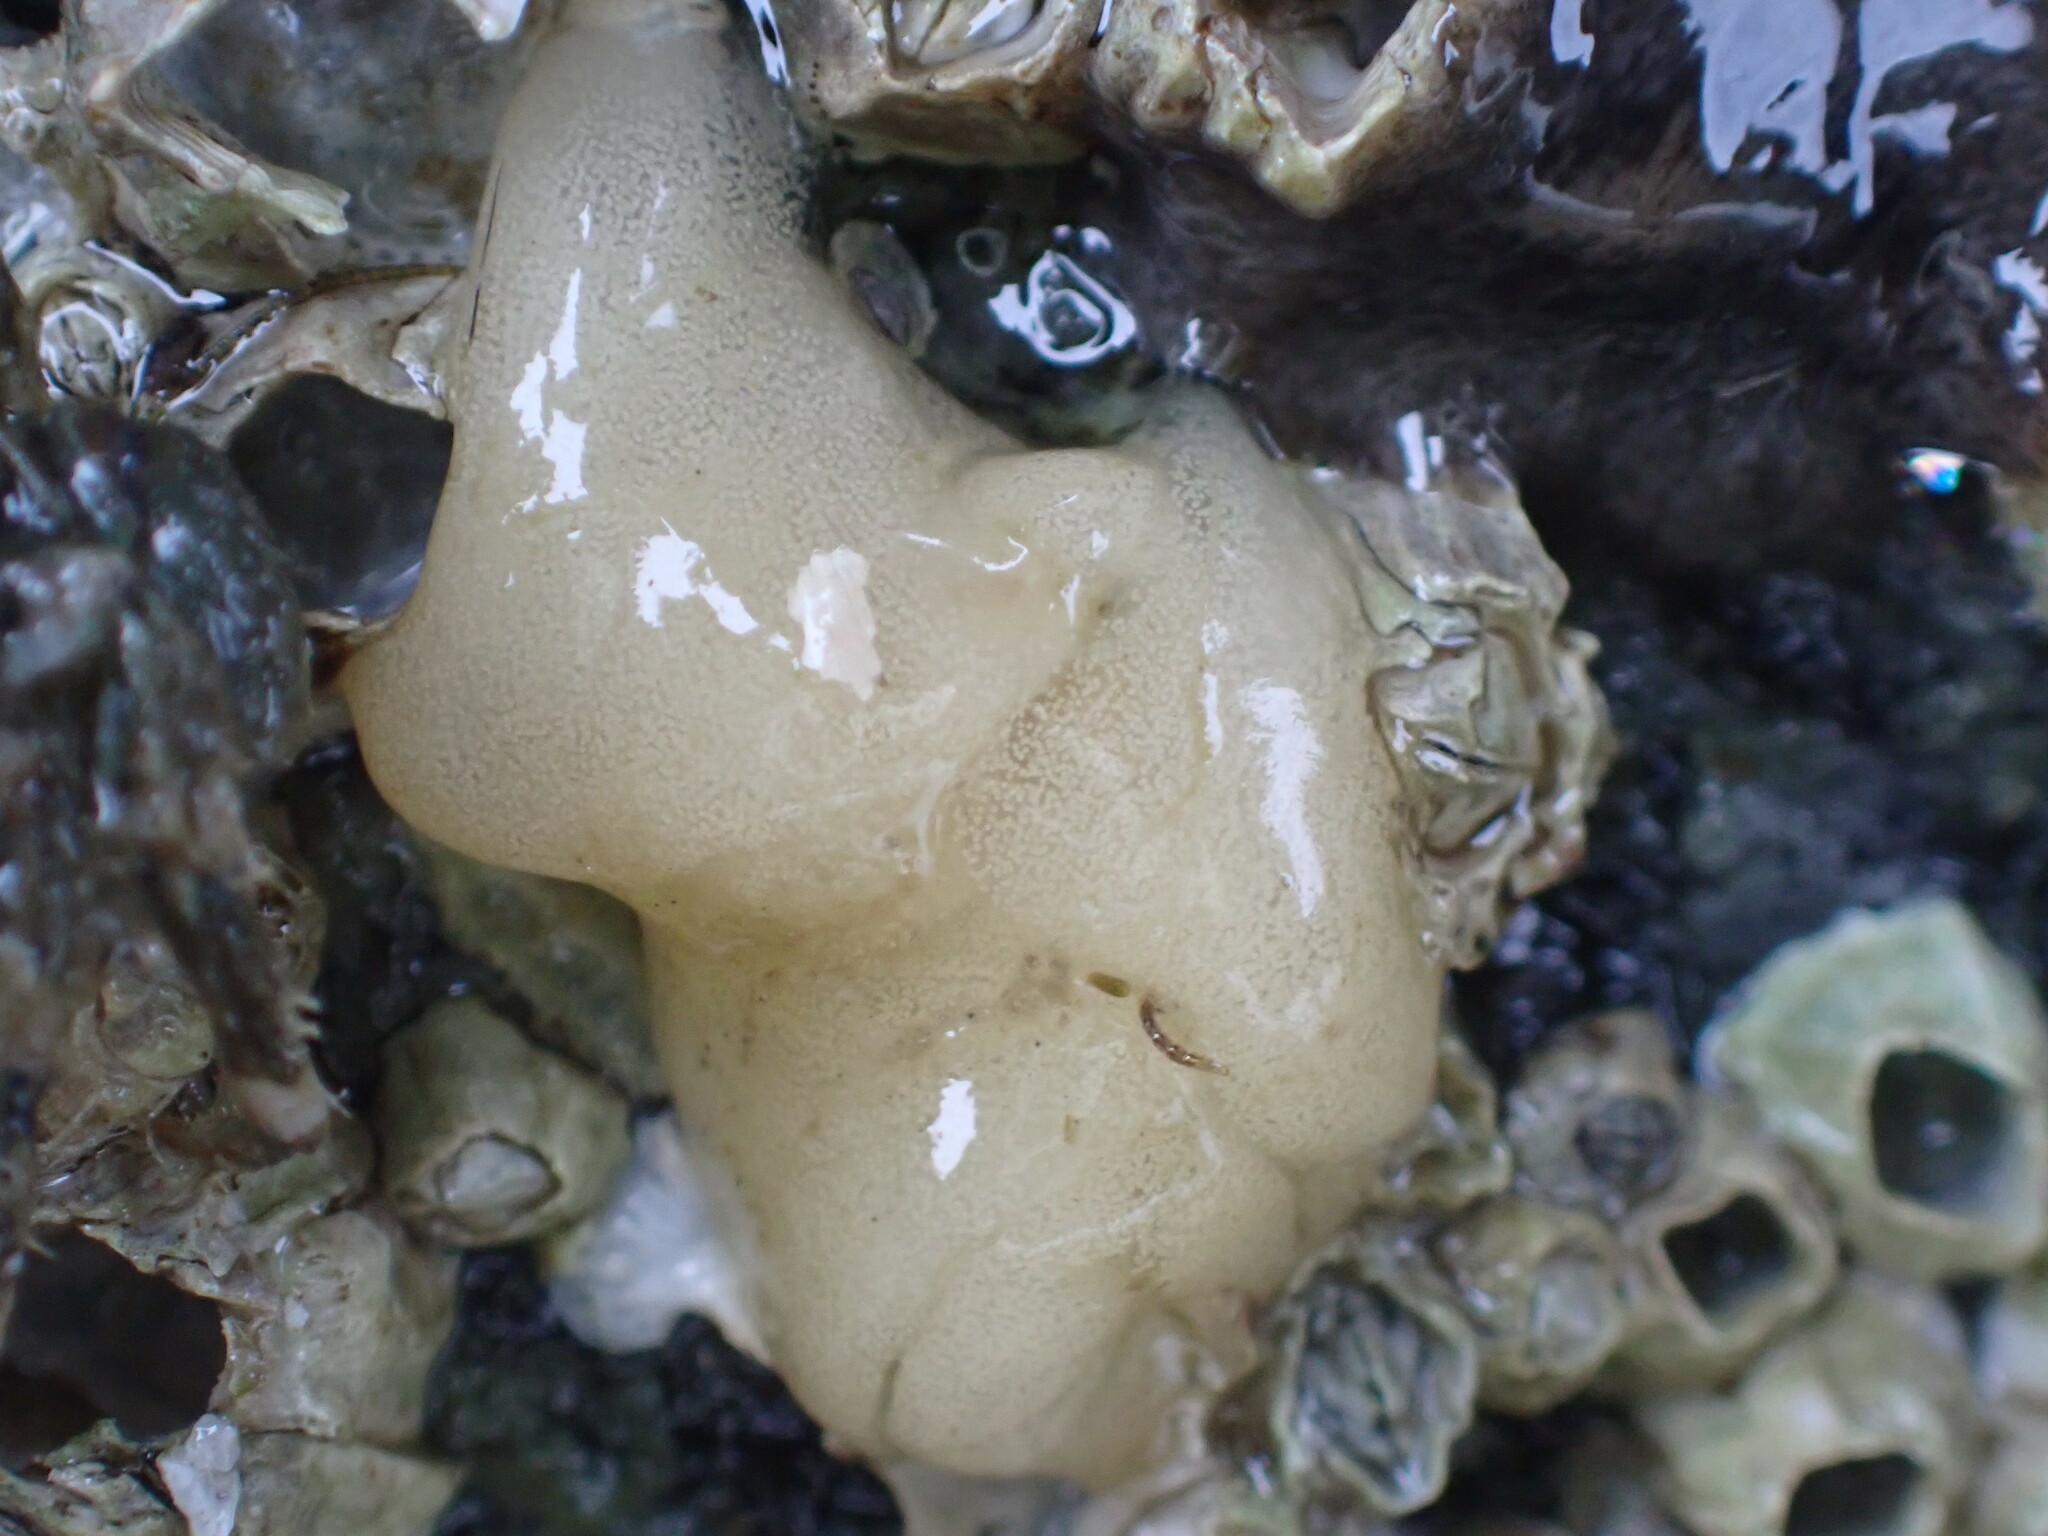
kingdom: Animalia
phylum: Mollusca
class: Gastropoda
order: Nudibranchia
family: Onchidorididae
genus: Onchidoris
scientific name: Onchidoris bilamellata
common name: Barnacle-eating onchidoris
